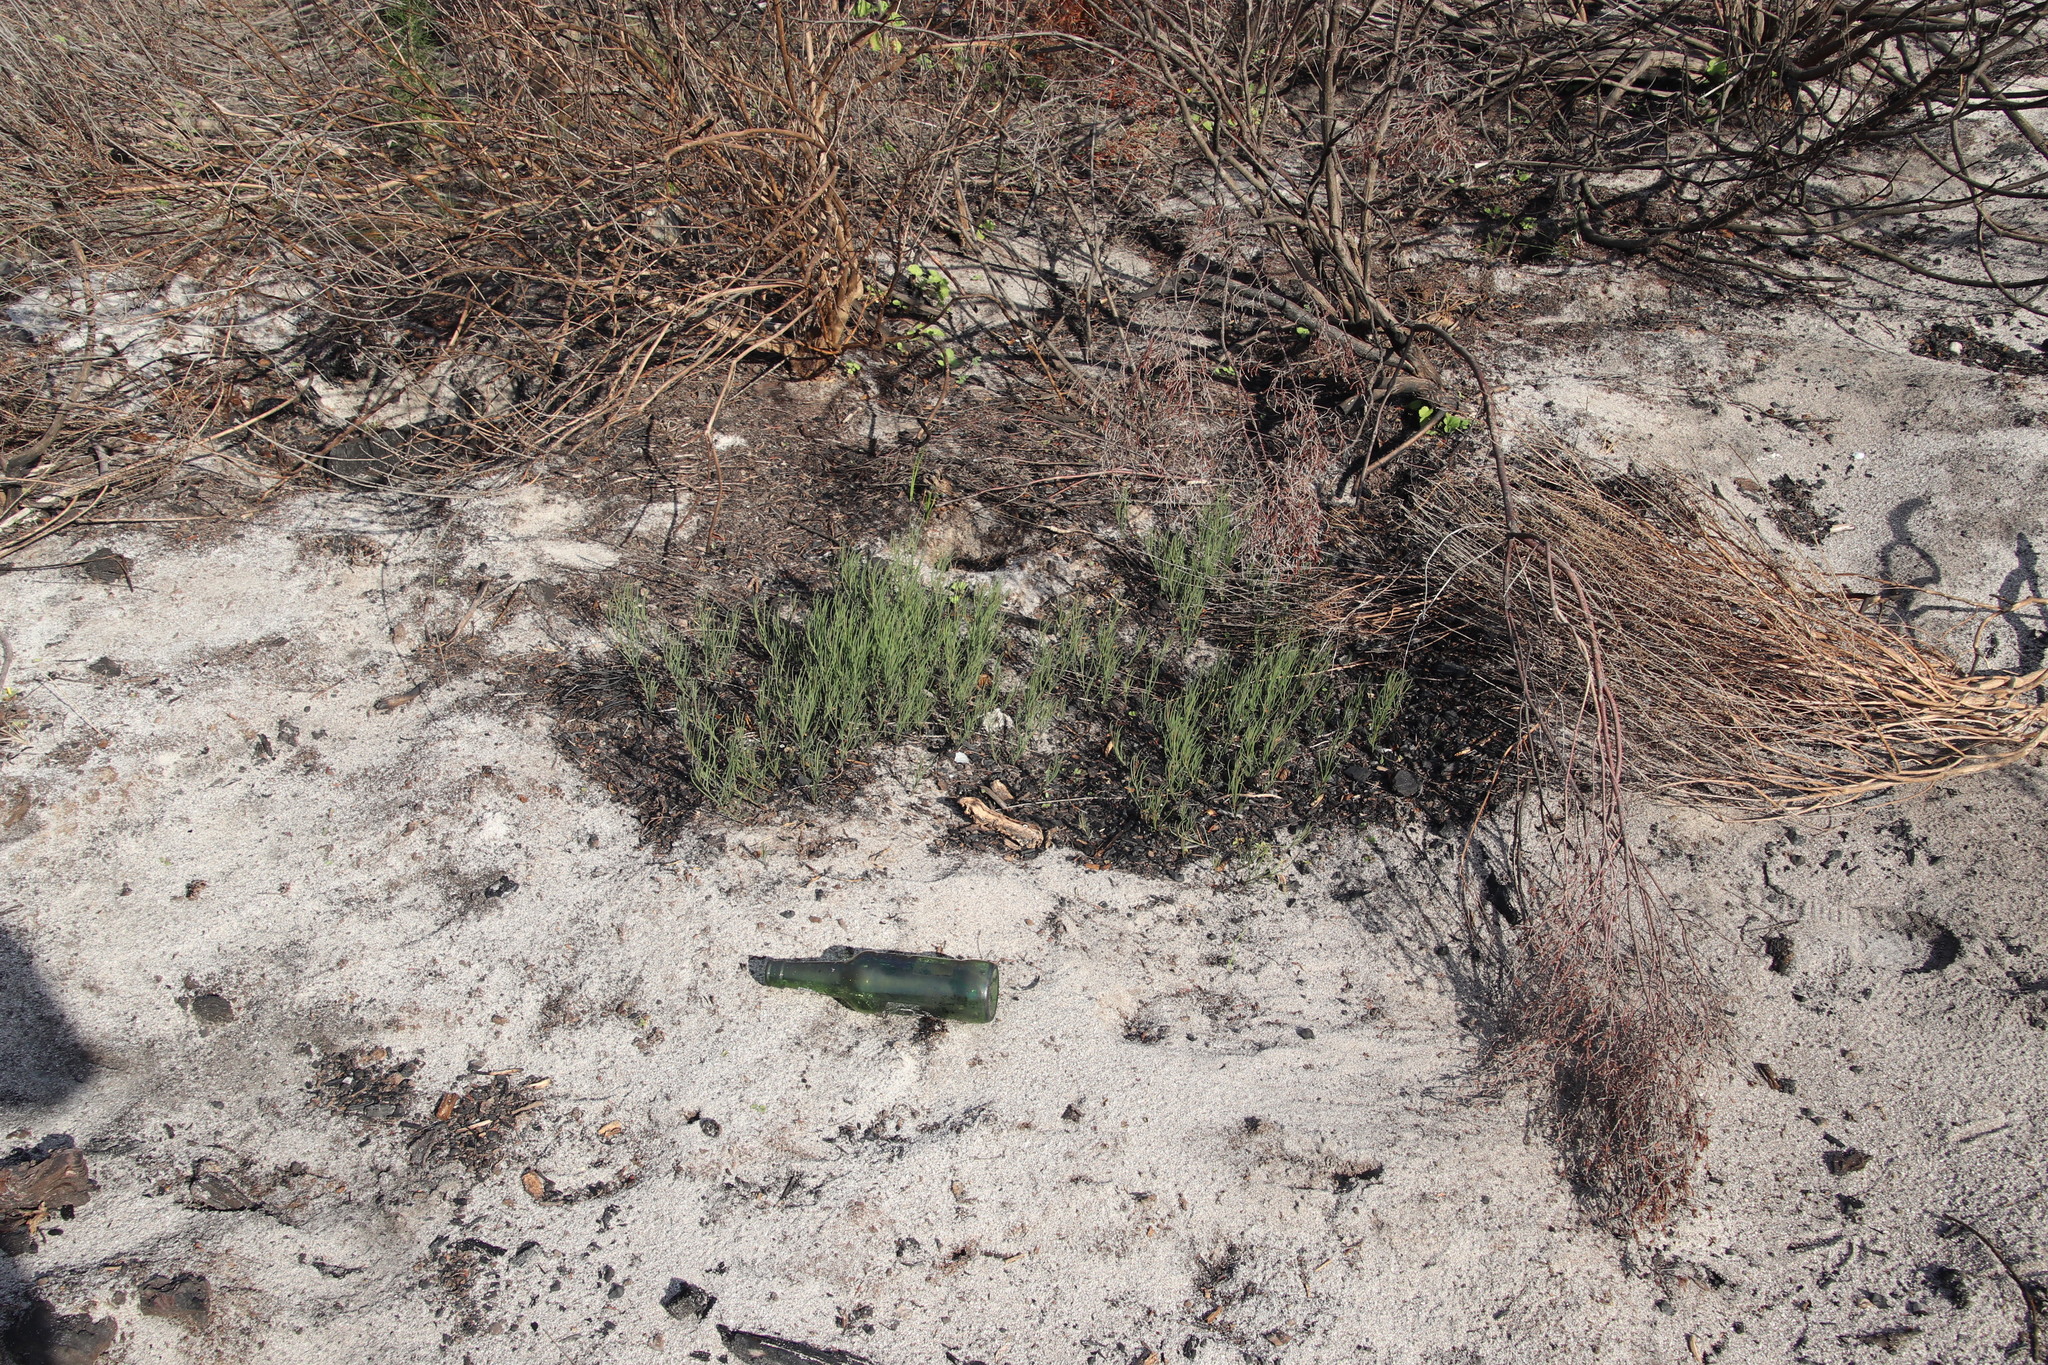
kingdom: Plantae
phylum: Tracheophyta
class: Magnoliopsida
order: Fabales
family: Fabaceae
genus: Lebeckia
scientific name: Lebeckia contaminata
